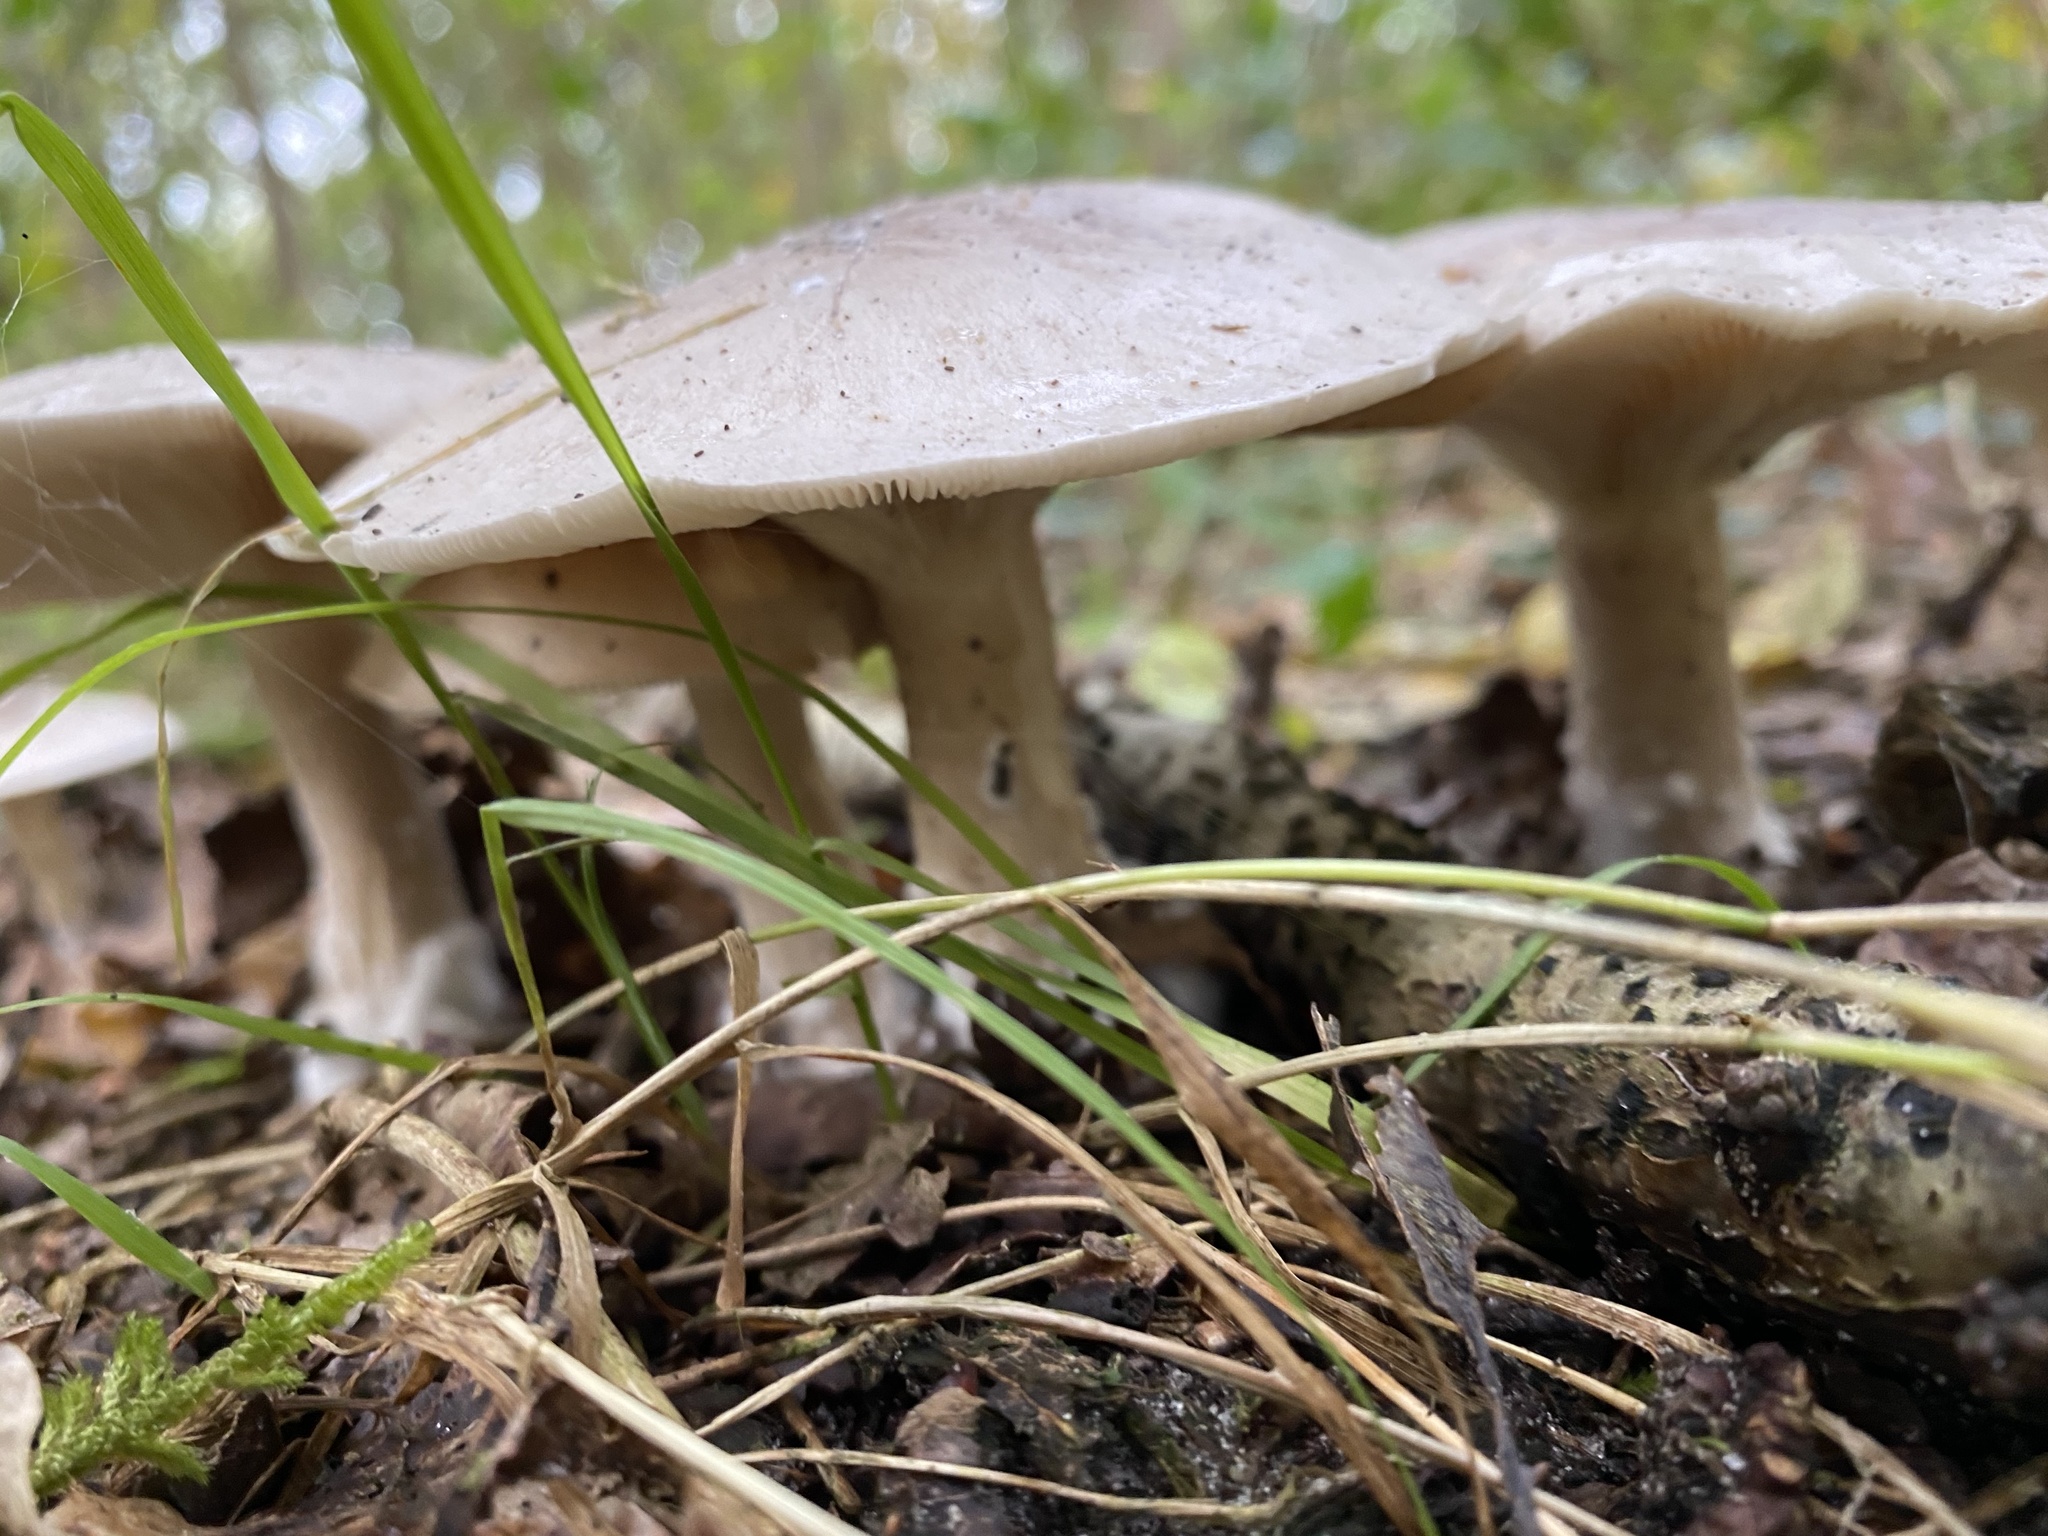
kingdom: Fungi
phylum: Basidiomycota
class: Agaricomycetes
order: Agaricales
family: Tricholomataceae
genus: Clitocybe
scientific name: Clitocybe nebularis
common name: Clouded agaric
